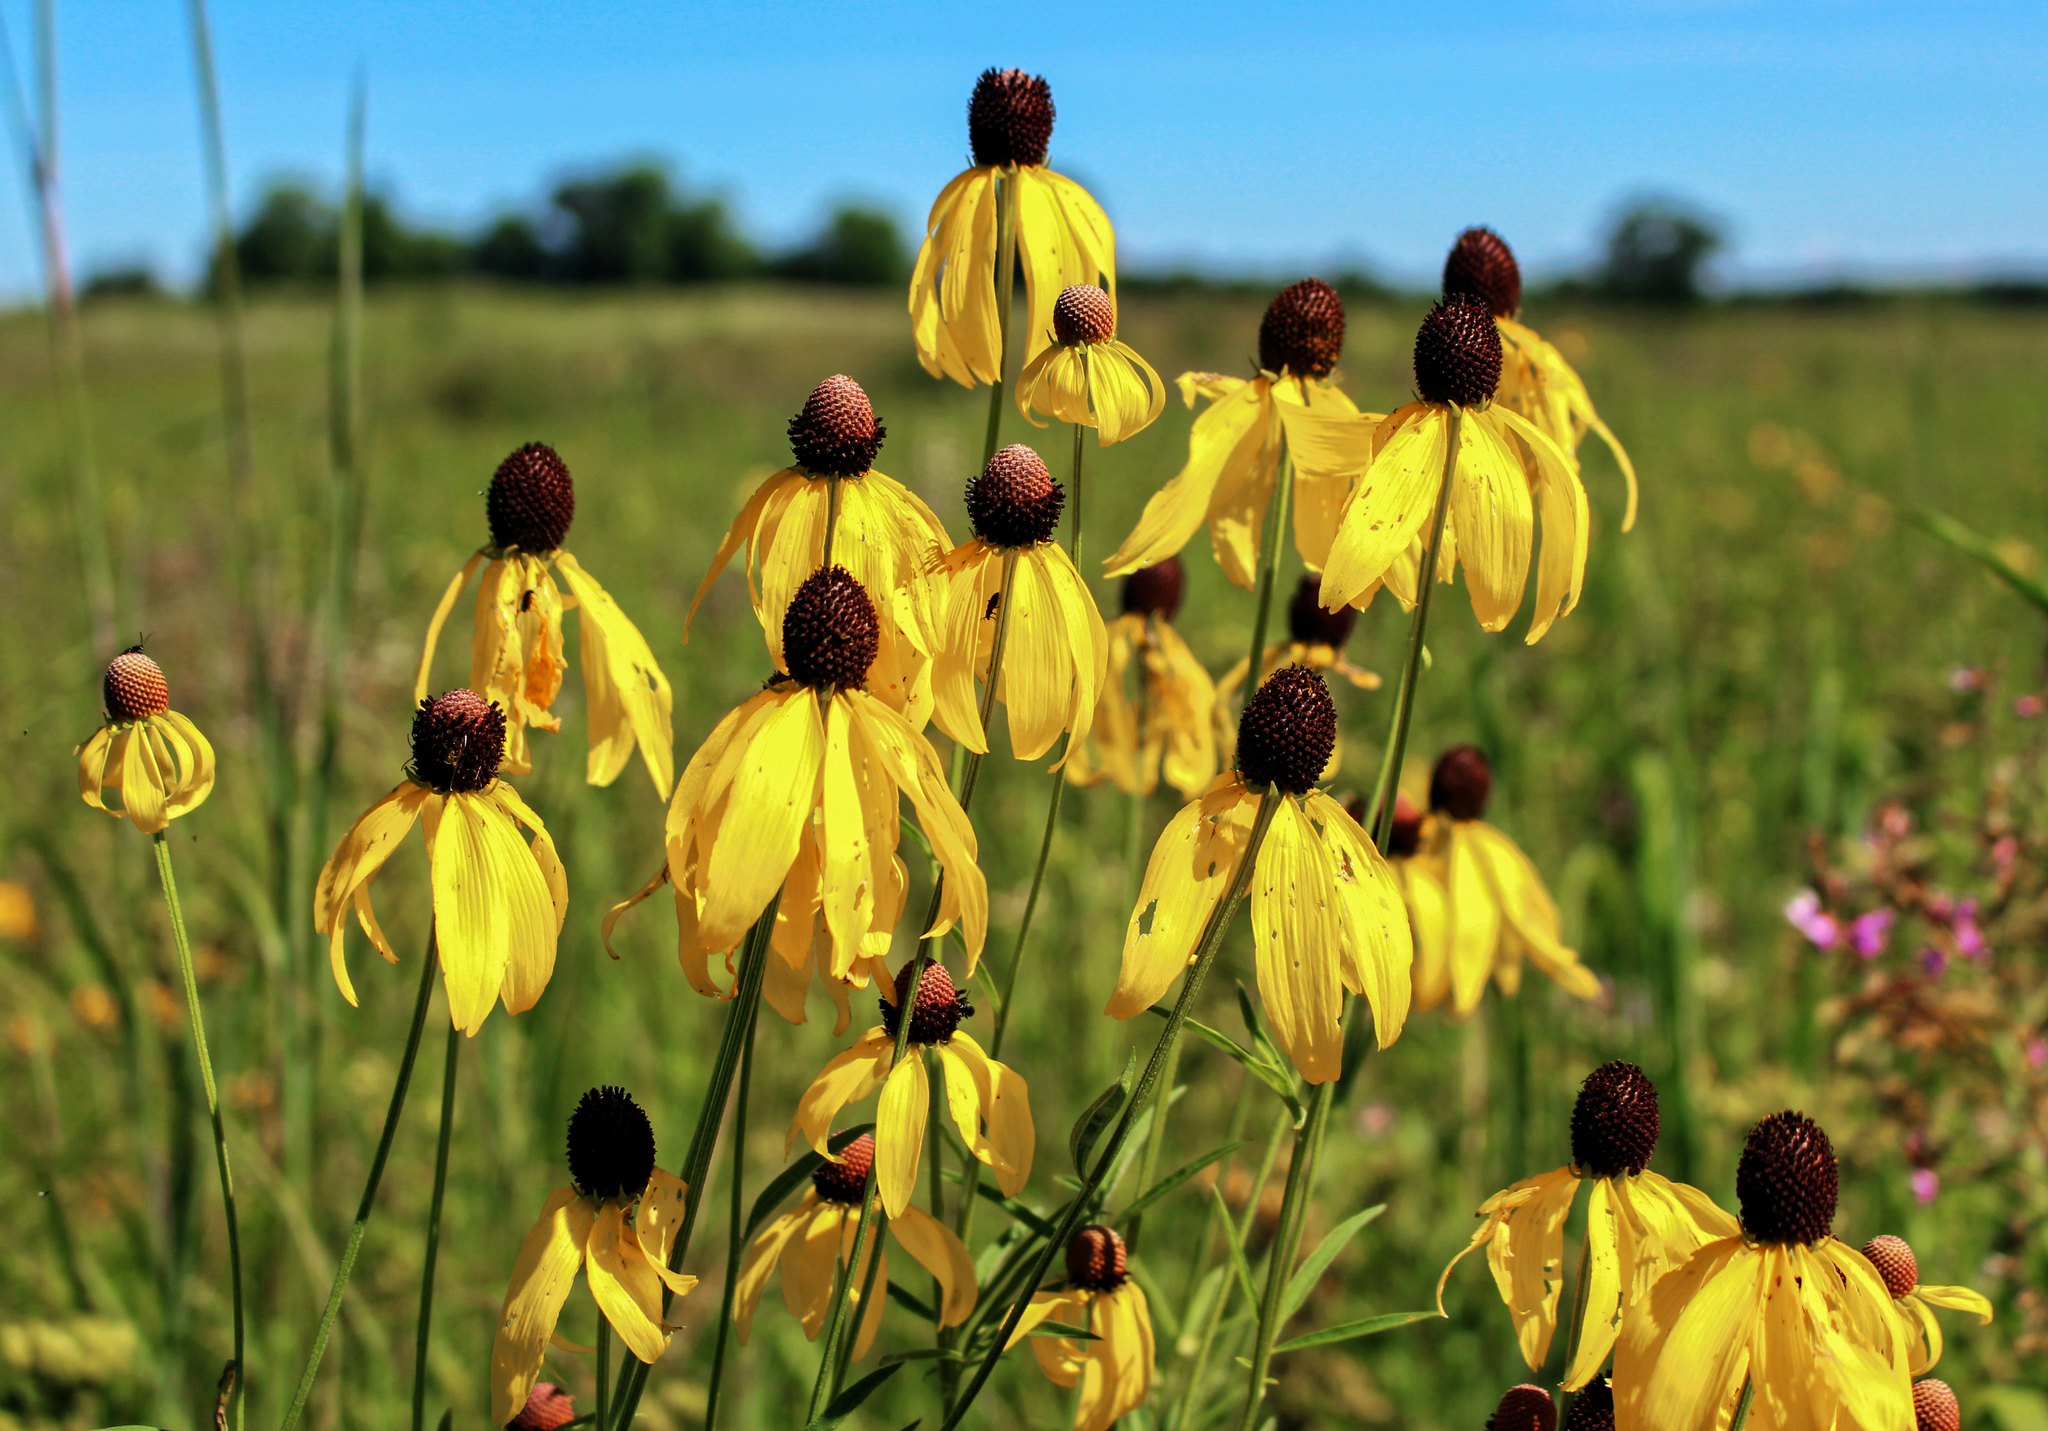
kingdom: Plantae
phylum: Tracheophyta
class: Magnoliopsida
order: Asterales
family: Asteraceae
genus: Ratibida
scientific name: Ratibida pinnata
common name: Drooping prairie-coneflower
